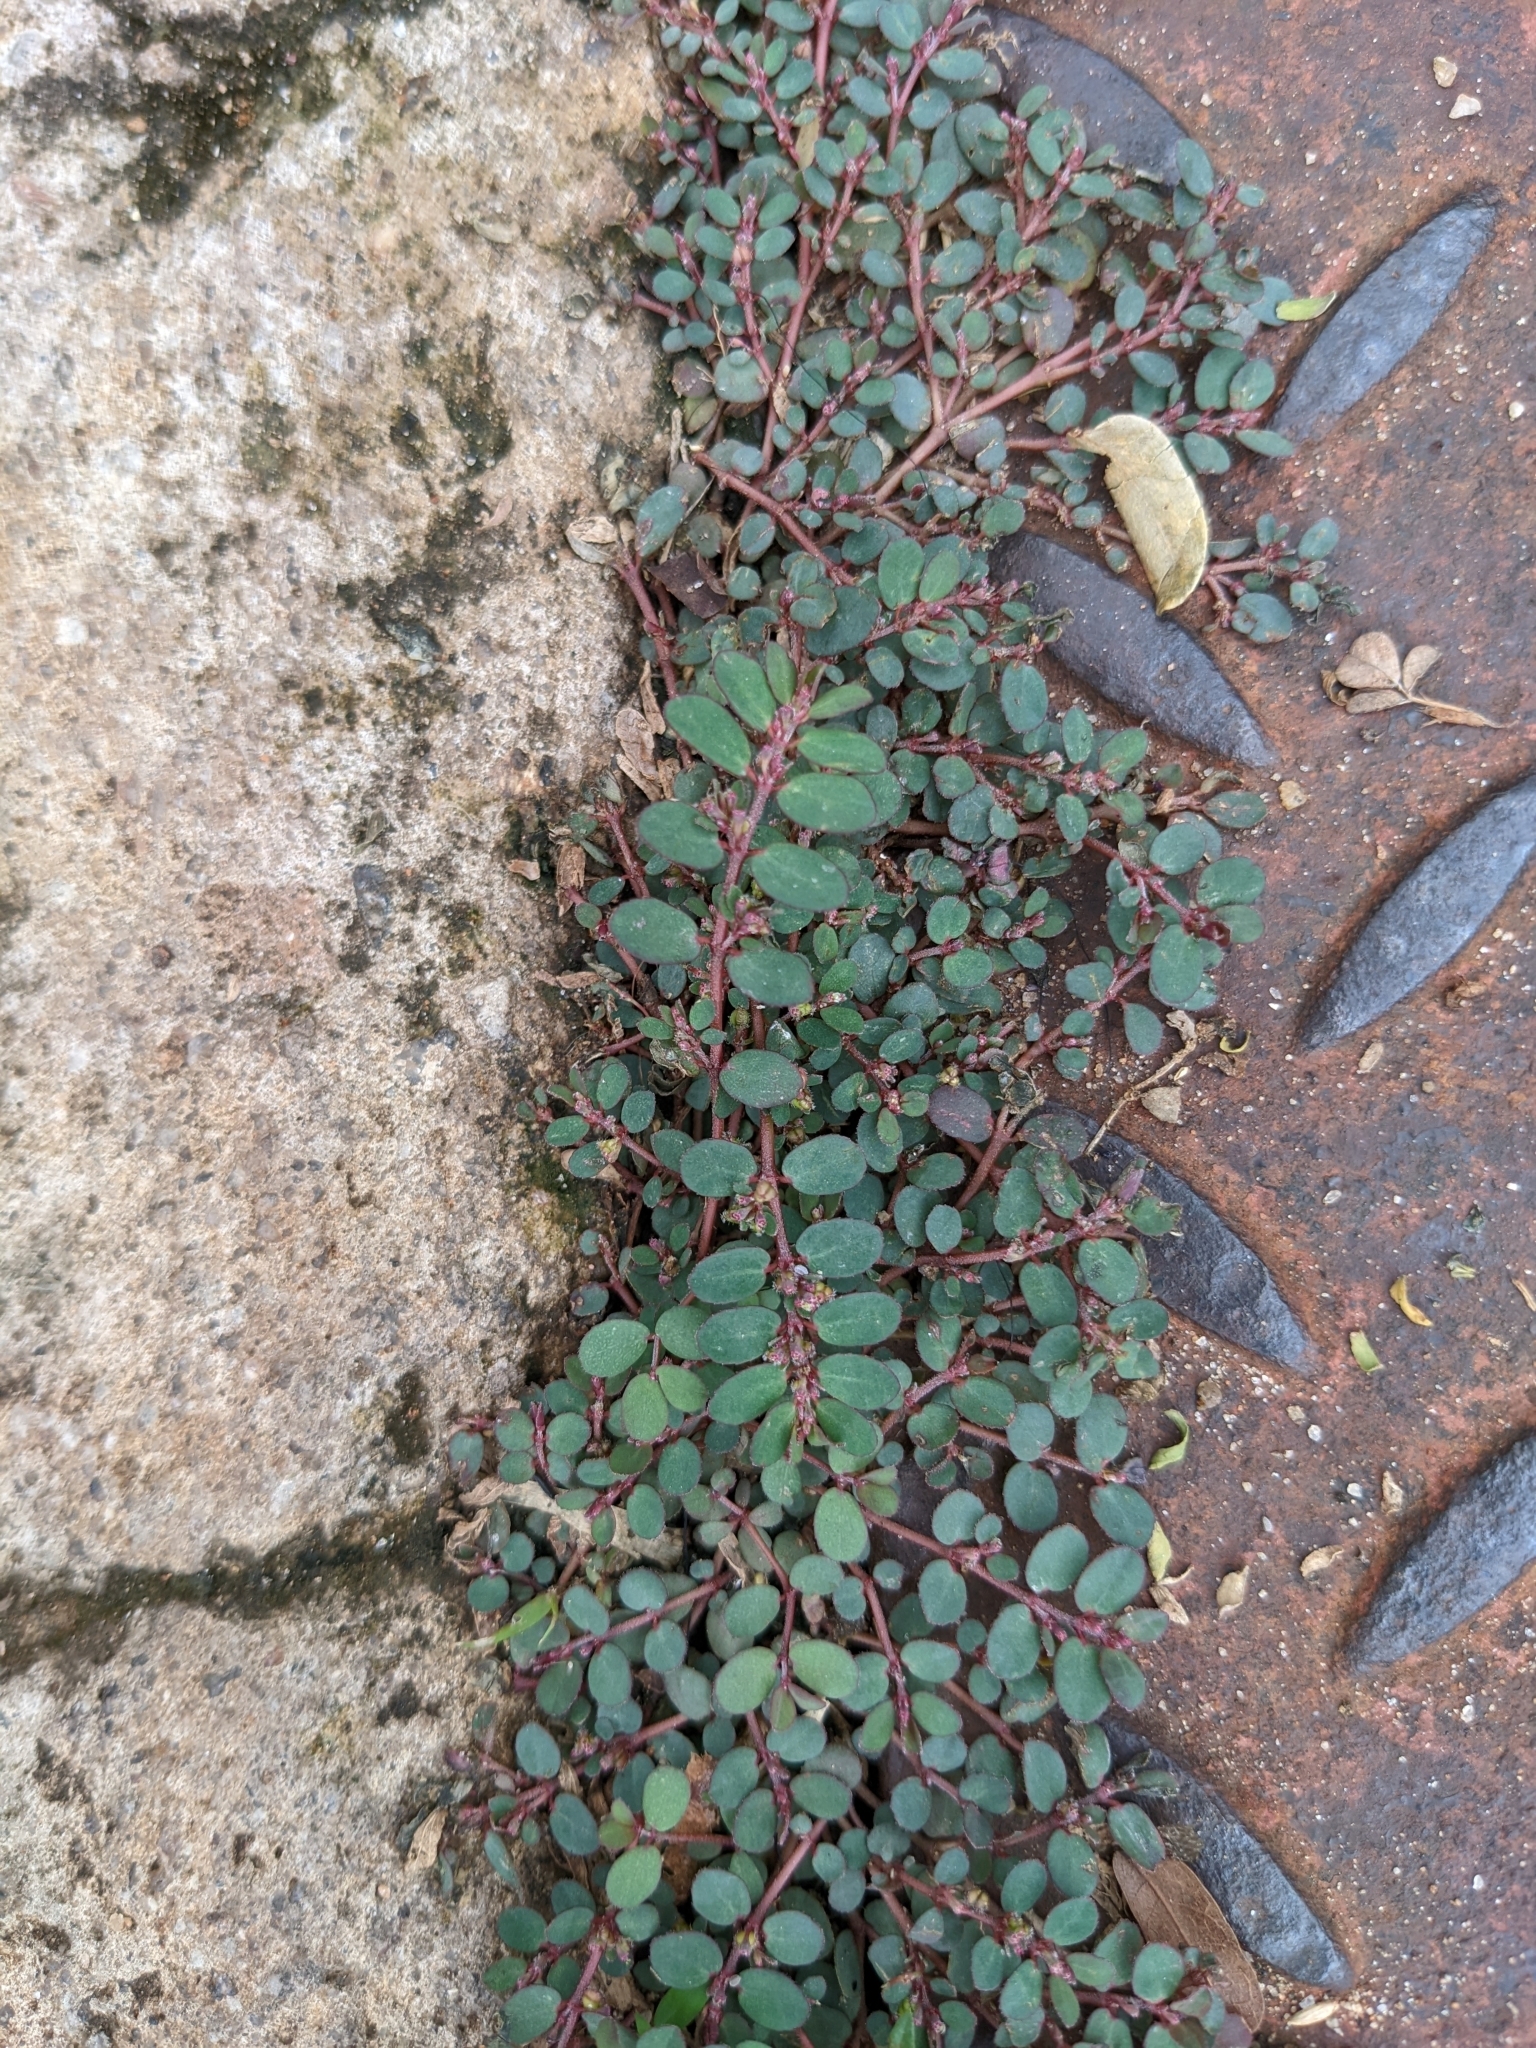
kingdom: Plantae
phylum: Tracheophyta
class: Magnoliopsida
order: Malpighiales
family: Euphorbiaceae
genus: Euphorbia
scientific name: Euphorbia prostrata
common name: Prostrate sandmat
